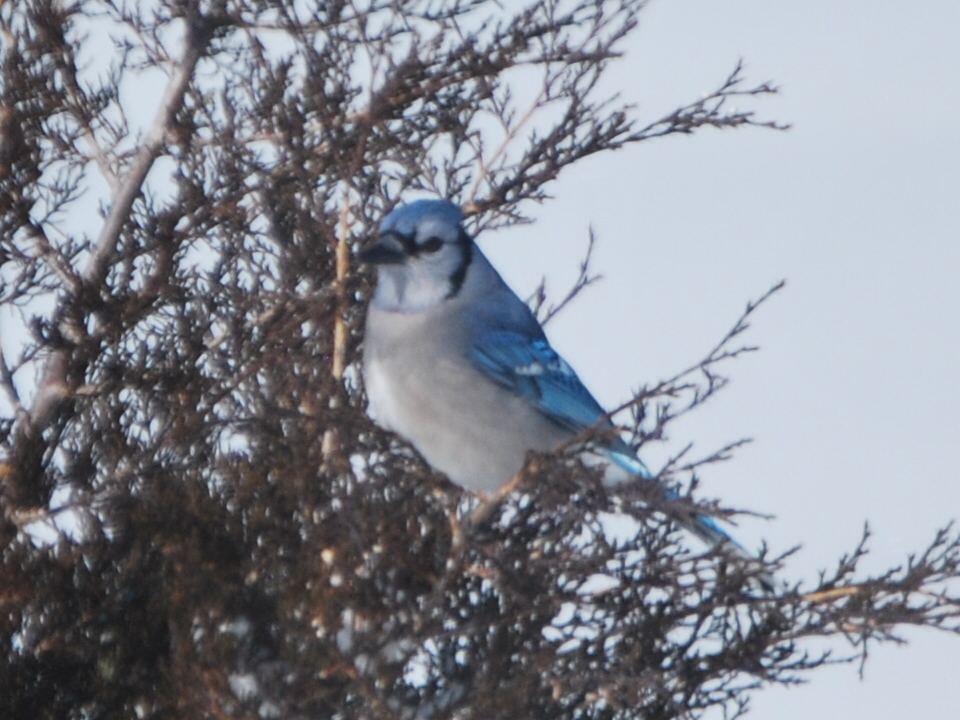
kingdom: Animalia
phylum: Chordata
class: Aves
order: Passeriformes
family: Corvidae
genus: Cyanocitta
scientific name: Cyanocitta cristata
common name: Blue jay
